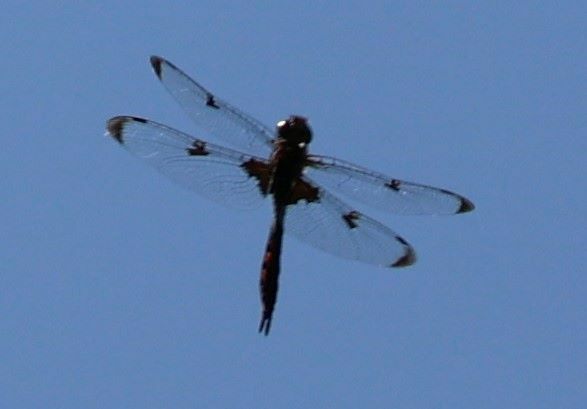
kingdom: Animalia
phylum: Arthropoda
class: Insecta
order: Odonata
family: Corduliidae
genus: Epitheca
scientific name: Epitheca princeps
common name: Prince baskettail
